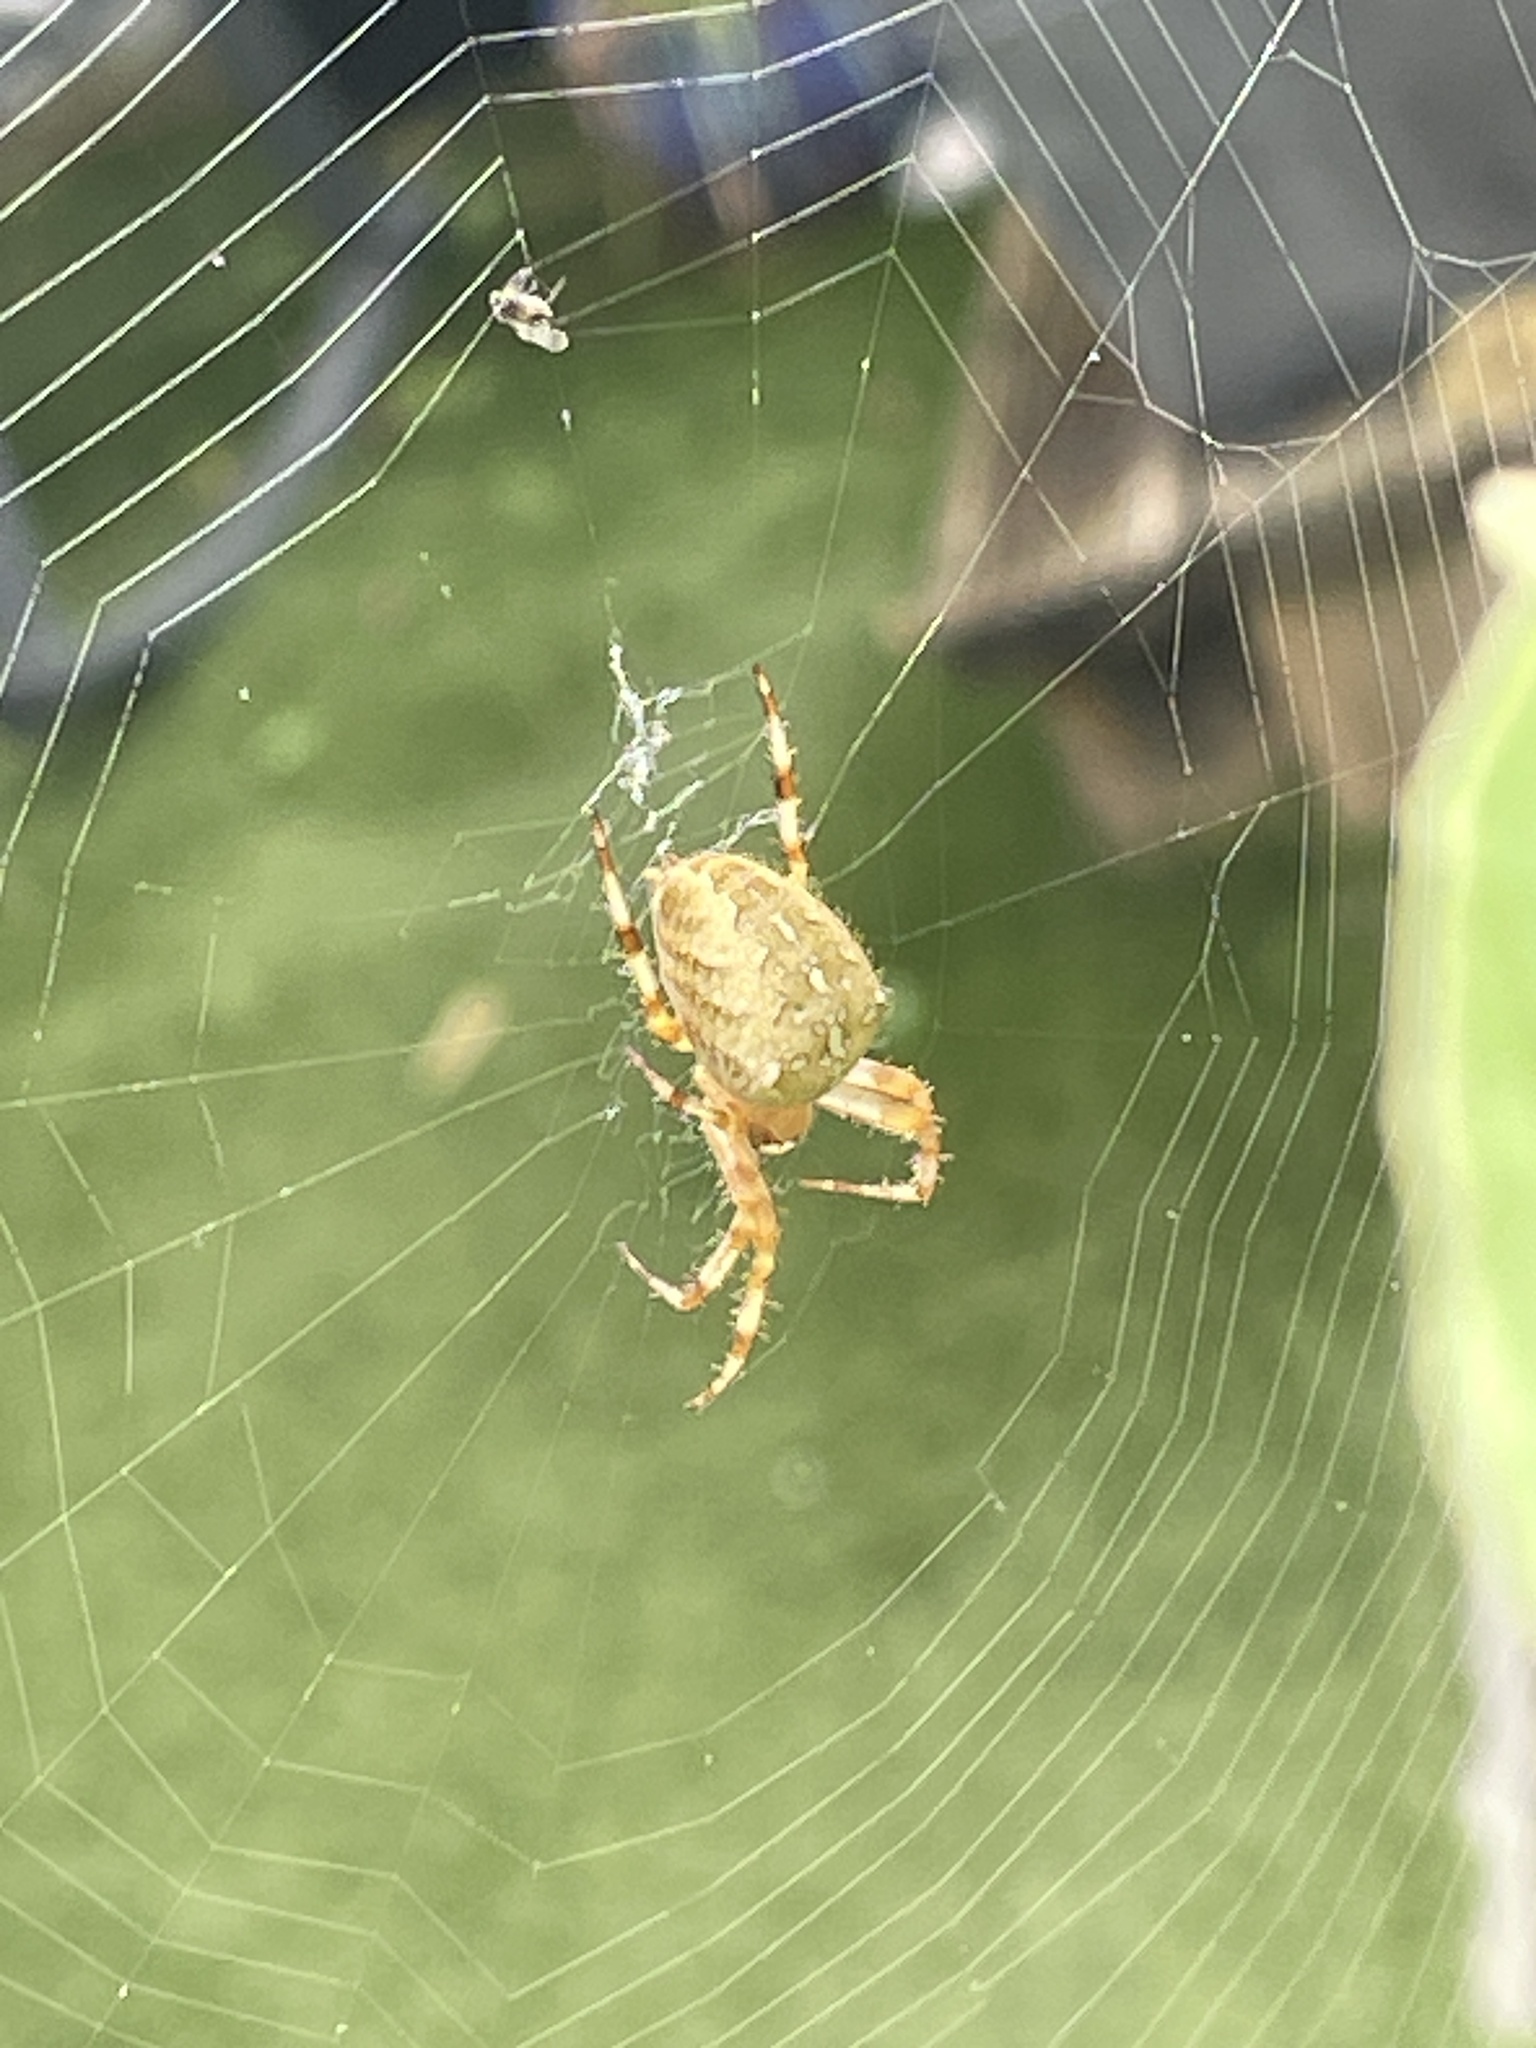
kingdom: Animalia
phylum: Arthropoda
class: Arachnida
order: Araneae
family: Araneidae
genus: Araneus
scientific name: Araneus diadematus
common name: Cross orbweaver
